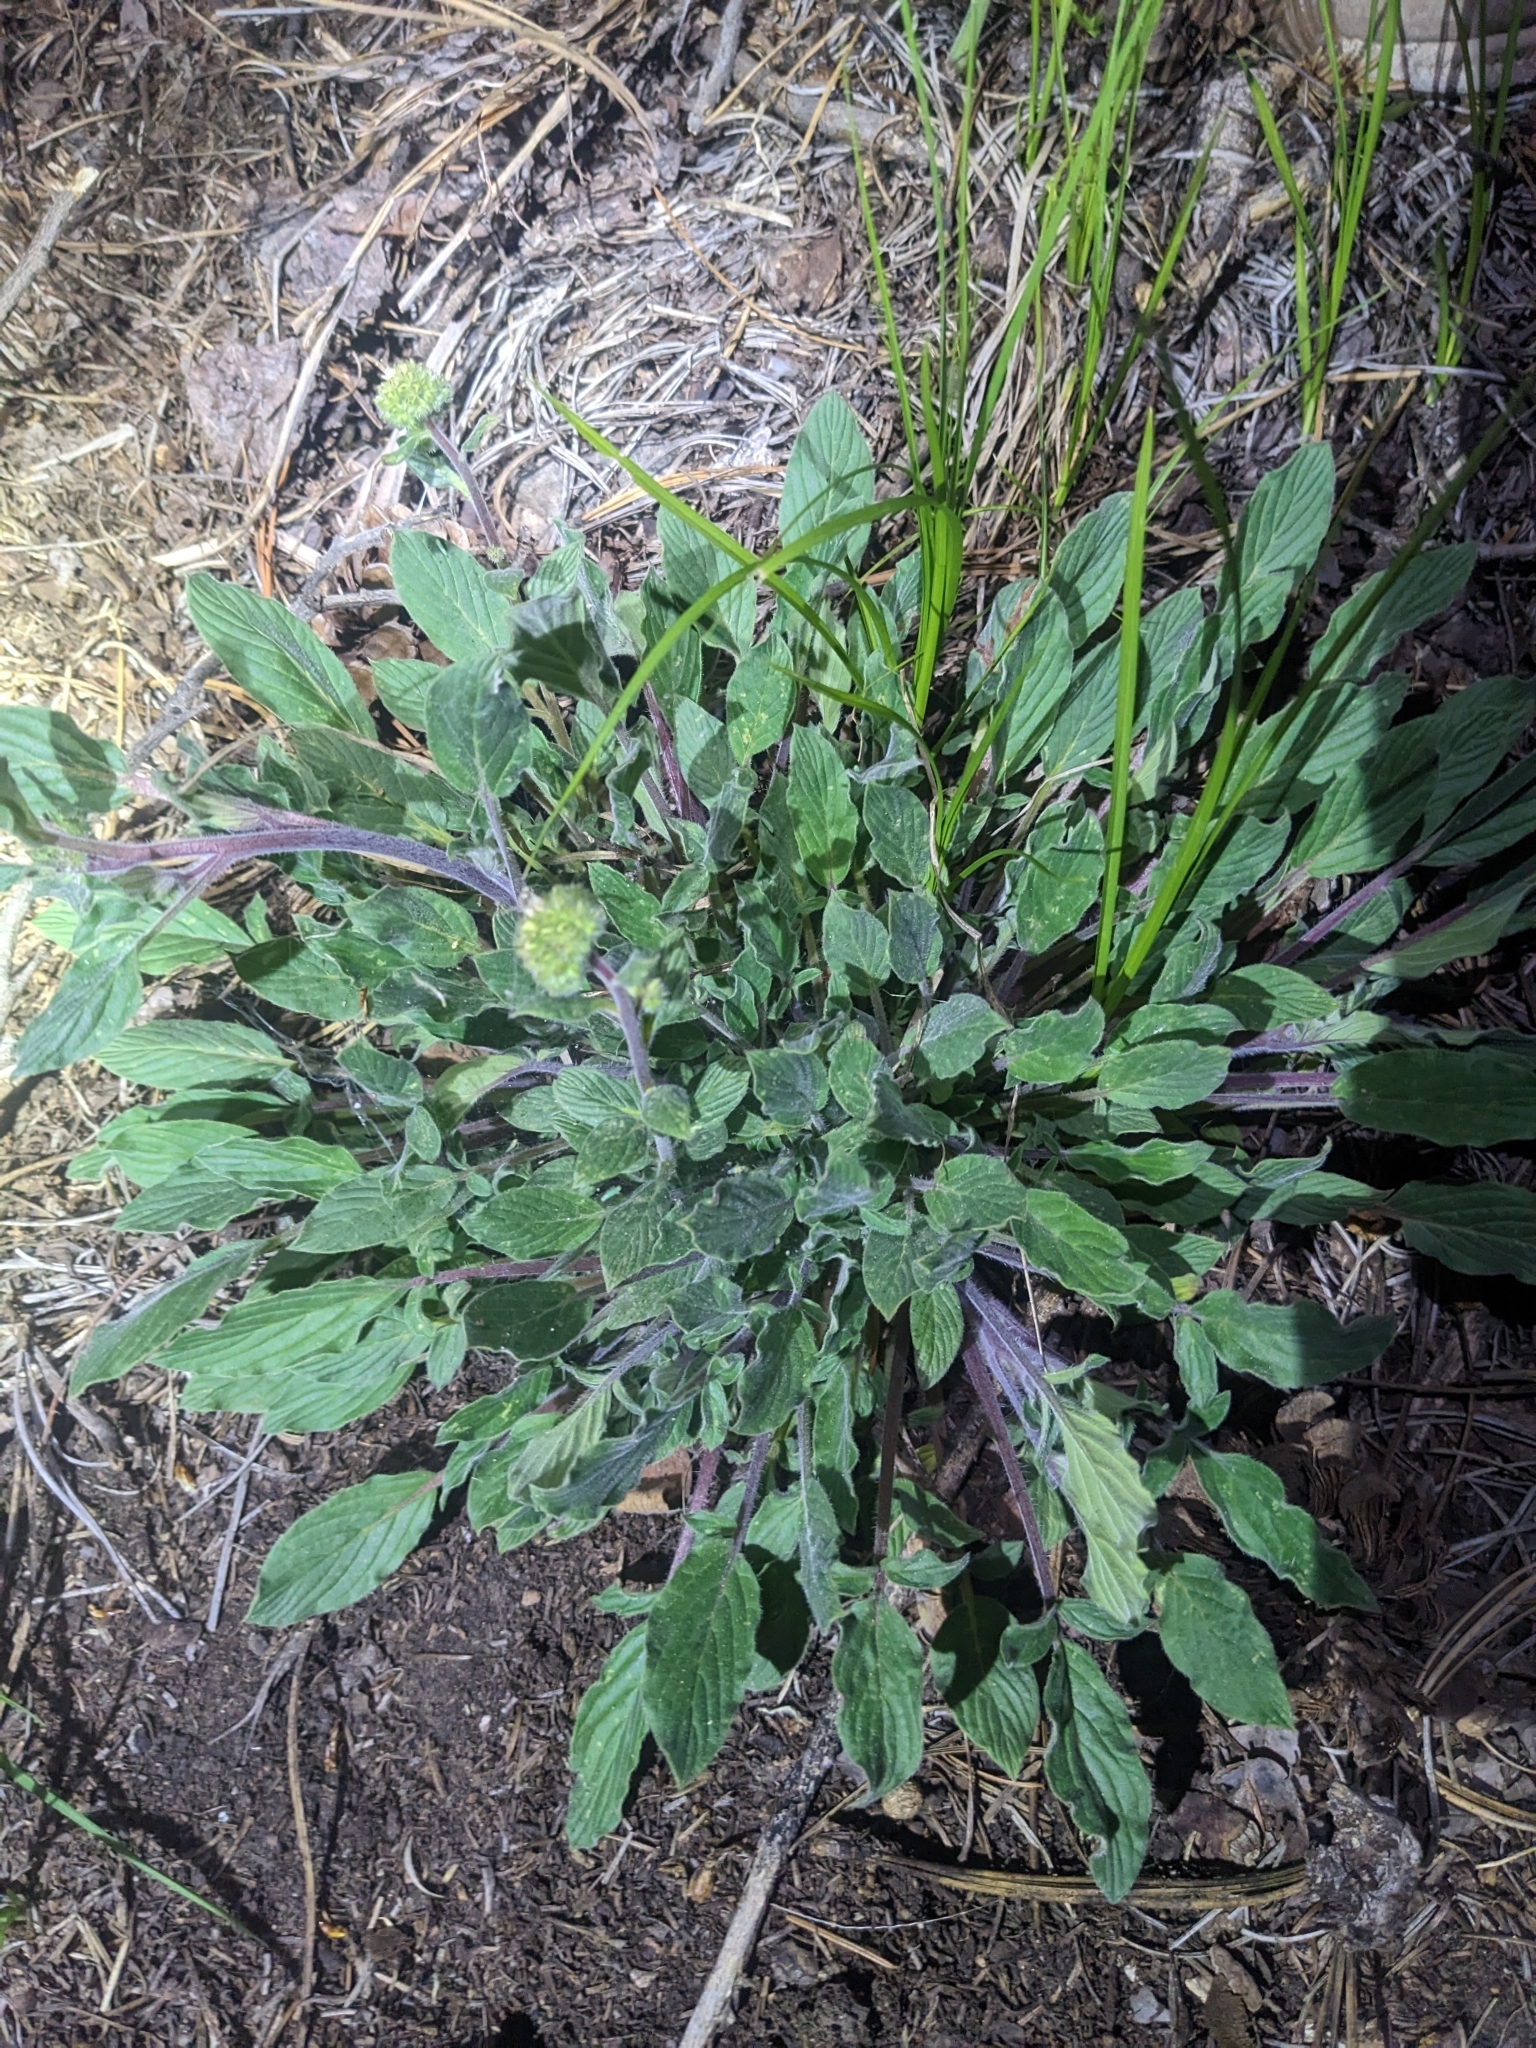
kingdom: Plantae
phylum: Tracheophyta
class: Magnoliopsida
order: Boraginales
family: Hydrophyllaceae
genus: Phacelia
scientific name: Phacelia heterophylla
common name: Variable-leaved phacelia
